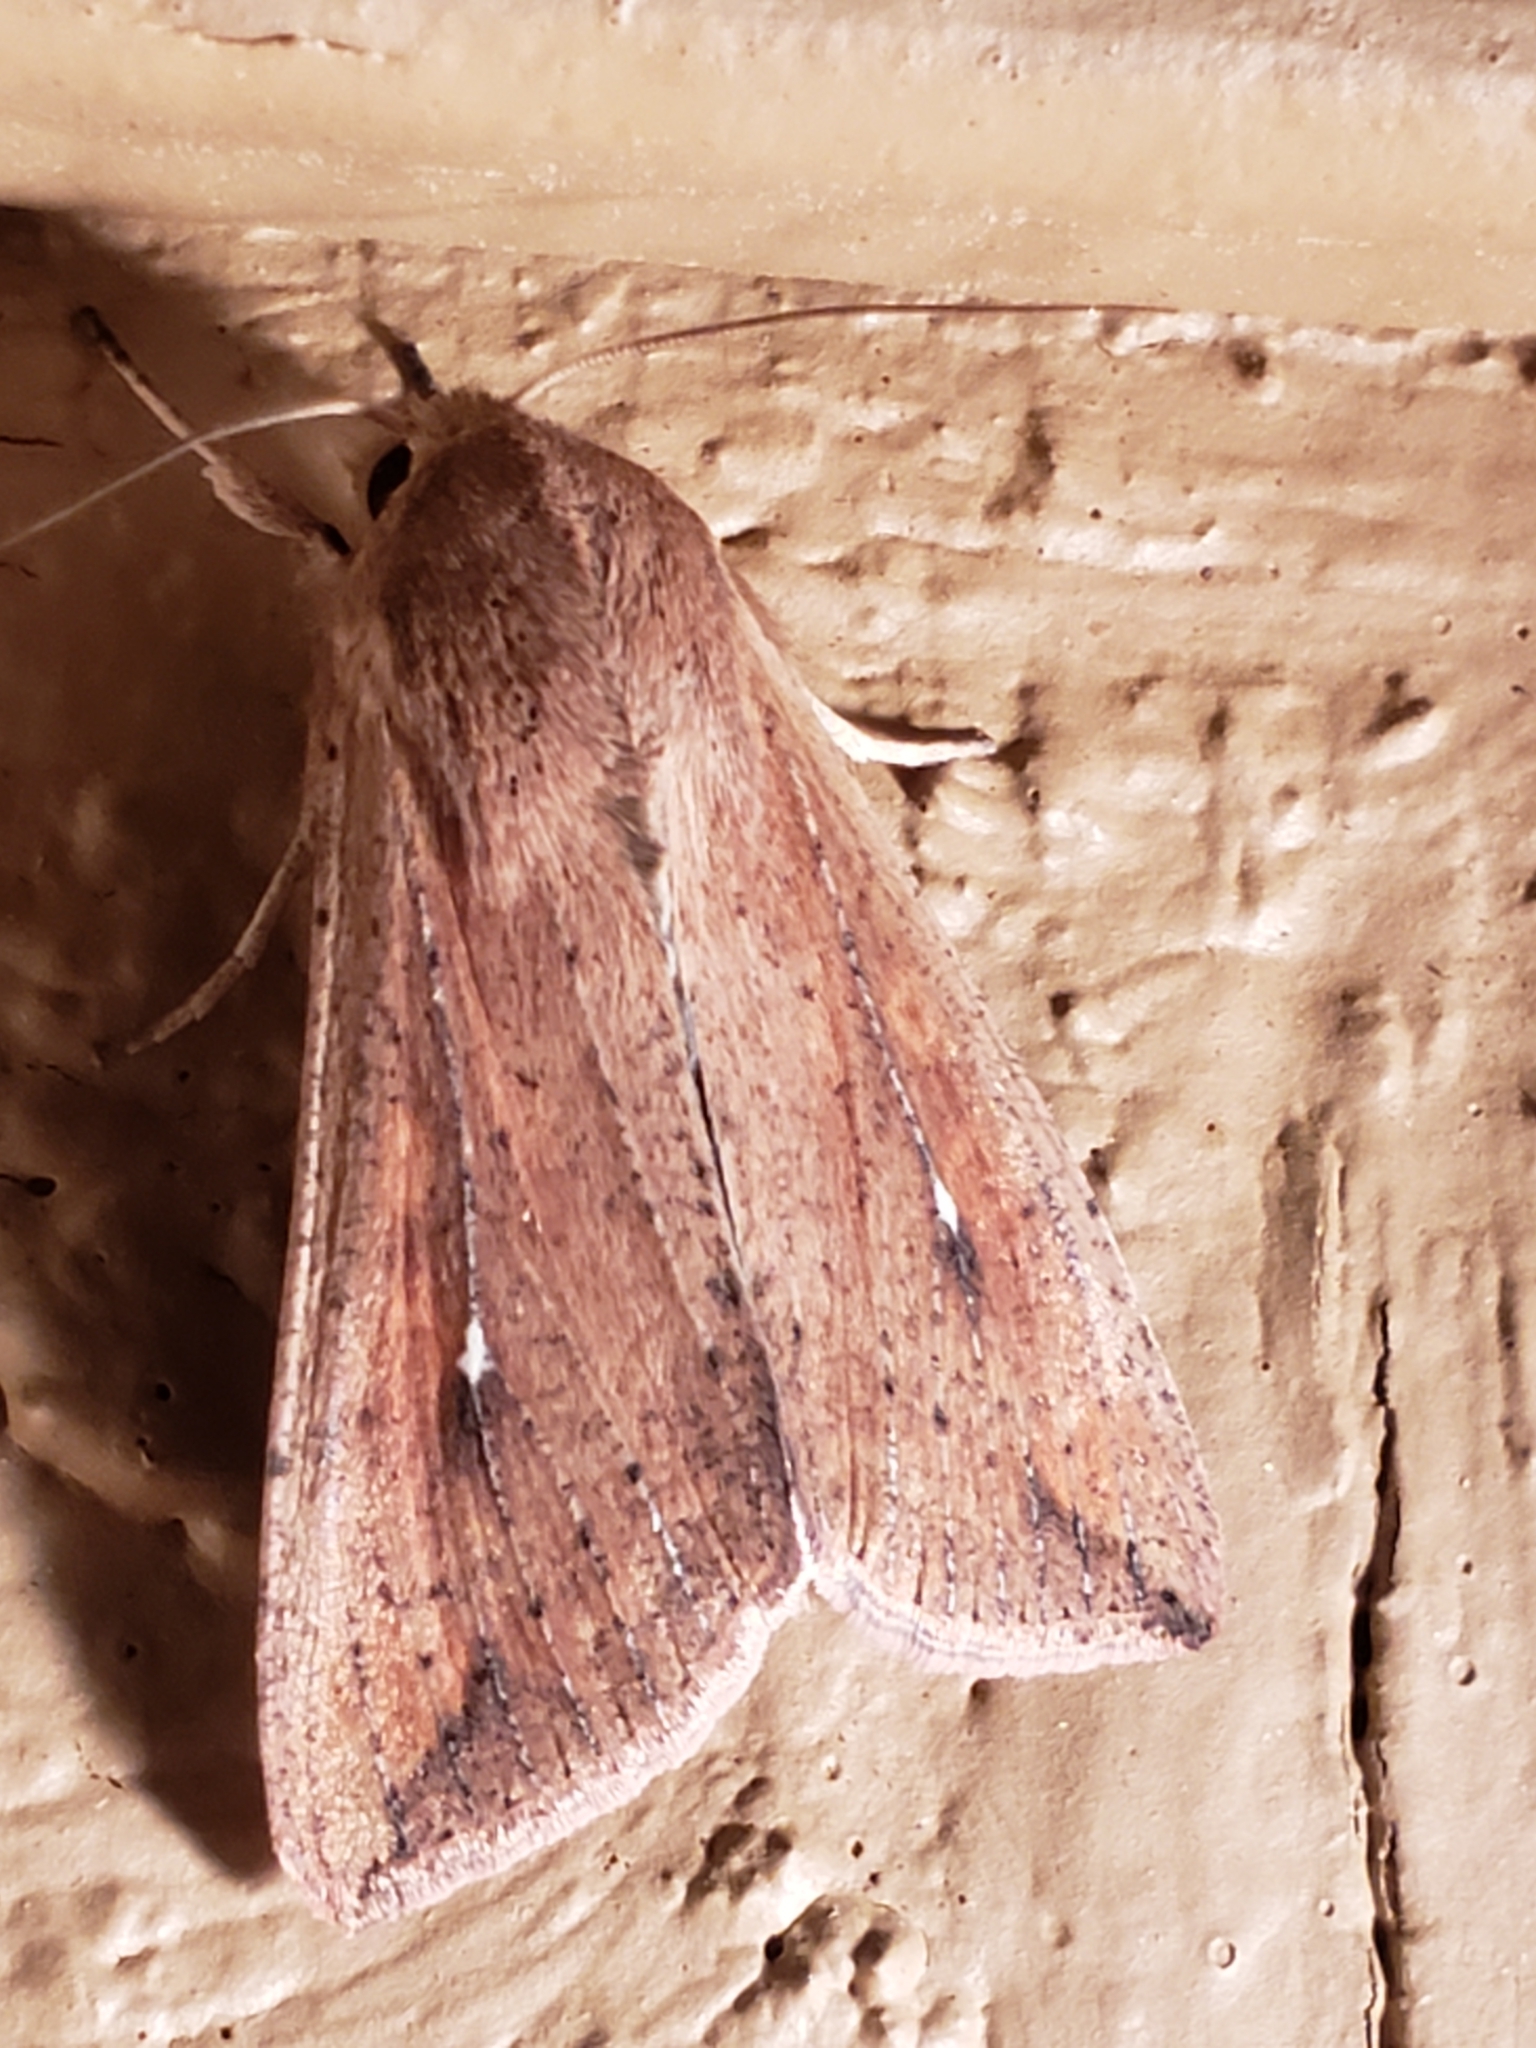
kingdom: Animalia
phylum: Arthropoda
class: Insecta
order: Lepidoptera
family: Noctuidae
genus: Mythimna
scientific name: Mythimna unipuncta
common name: White-speck
